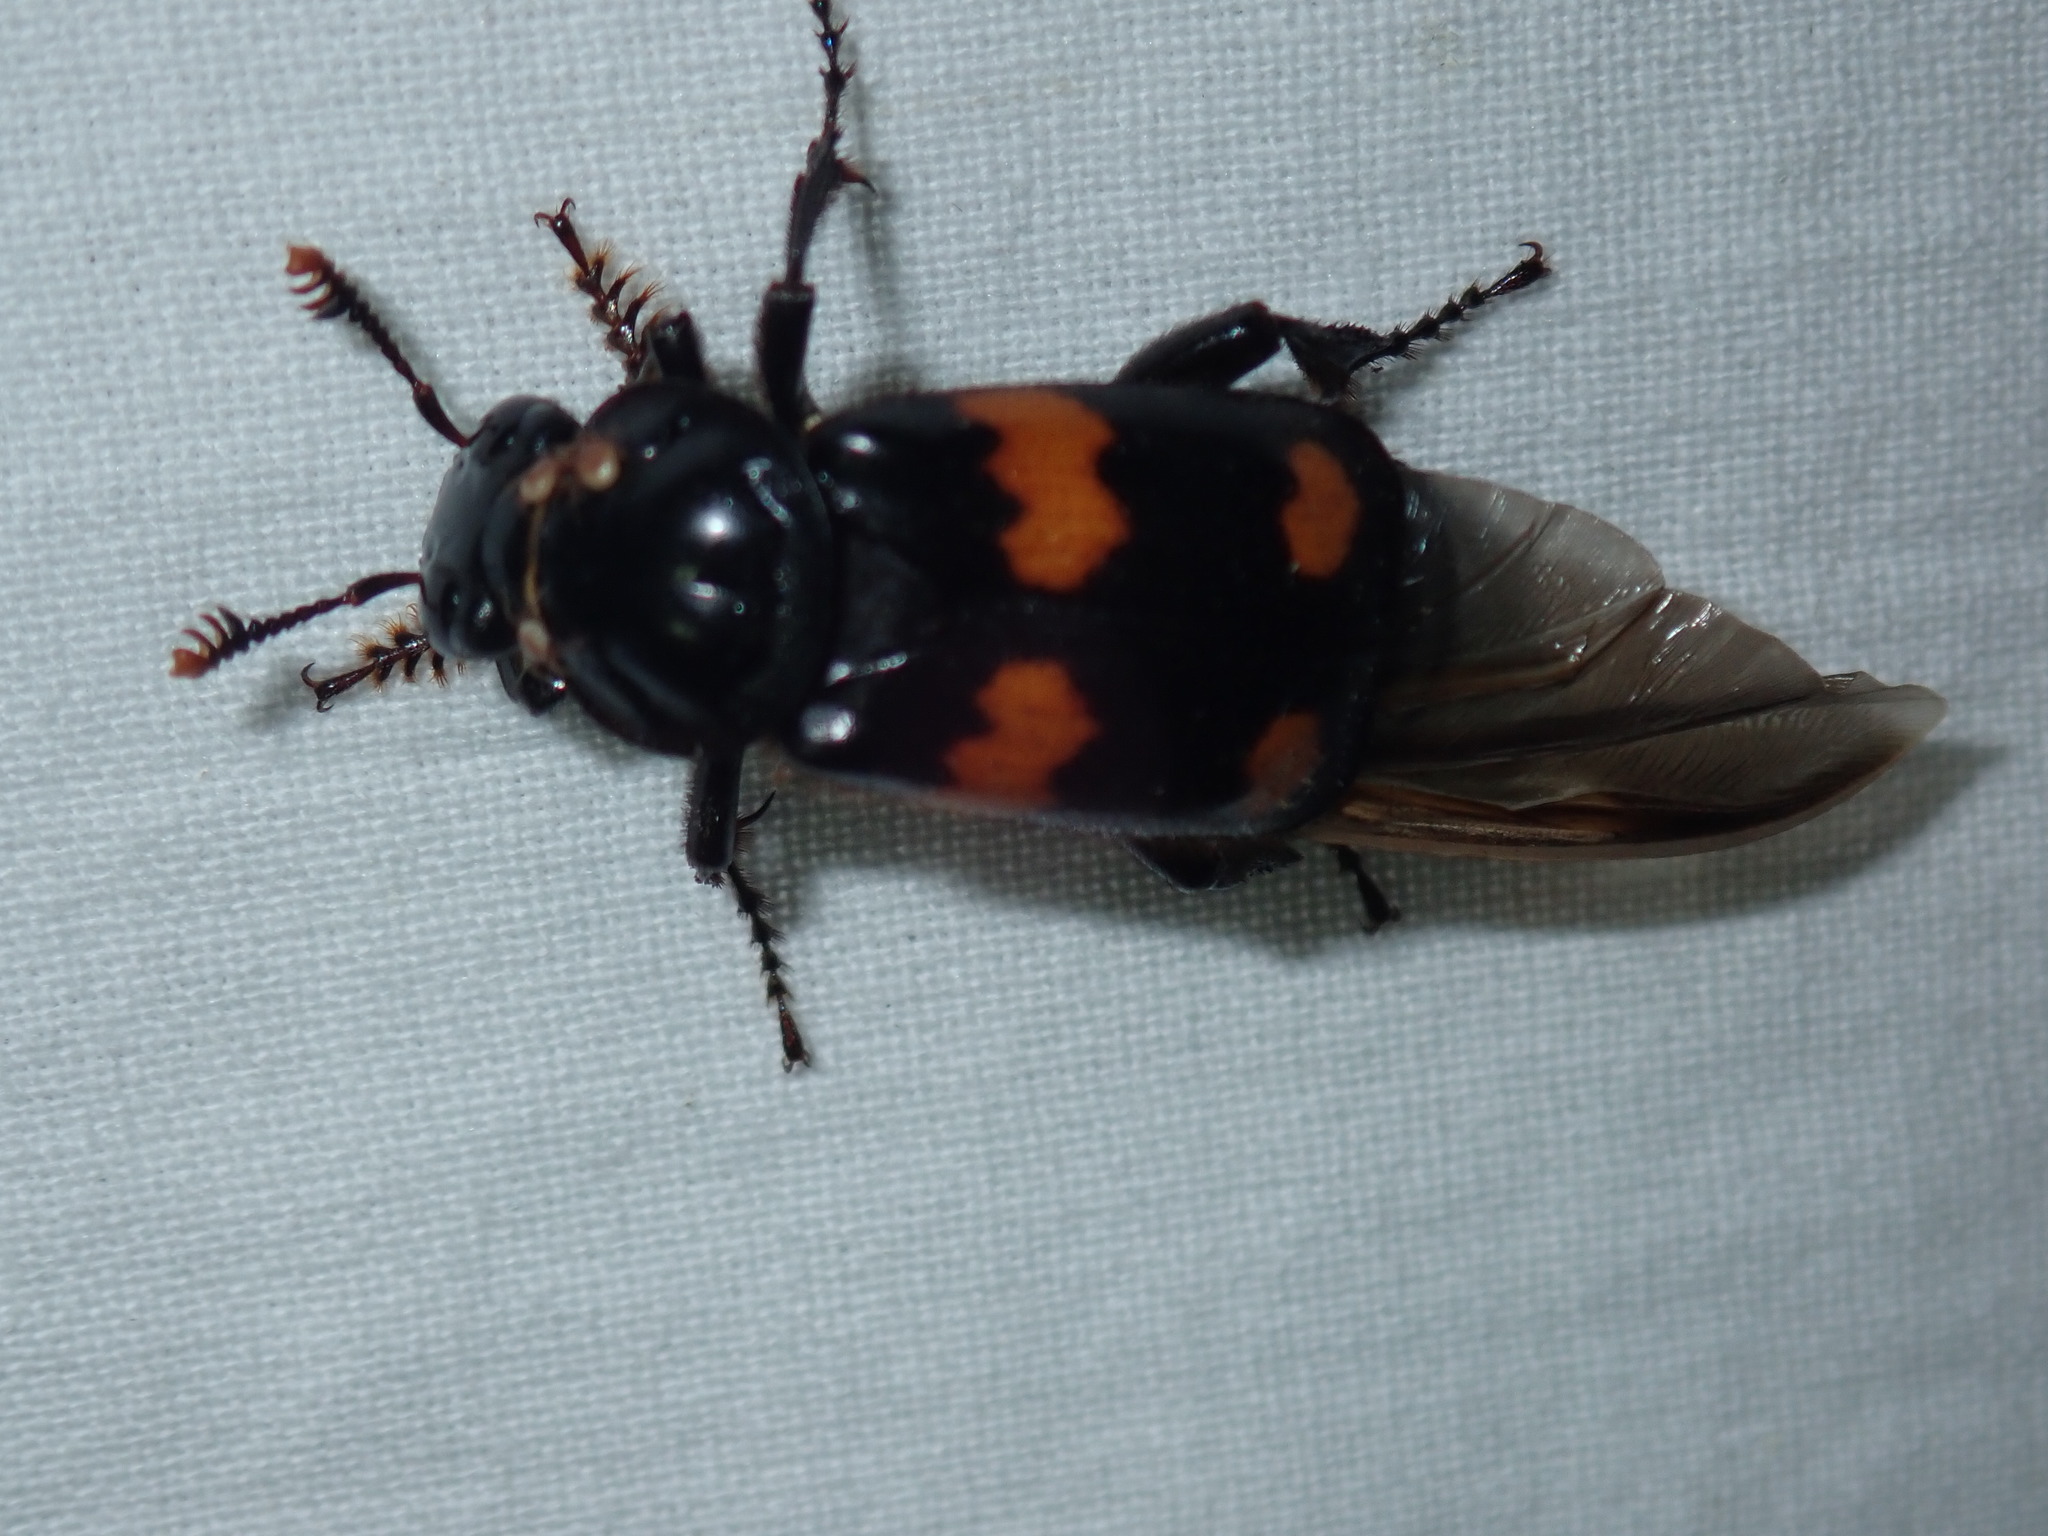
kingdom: Animalia
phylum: Arthropoda
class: Insecta
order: Coleoptera
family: Staphylinidae
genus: Nicrophorus
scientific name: Nicrophorus orbicollis
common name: Roundneck sexton beetle
